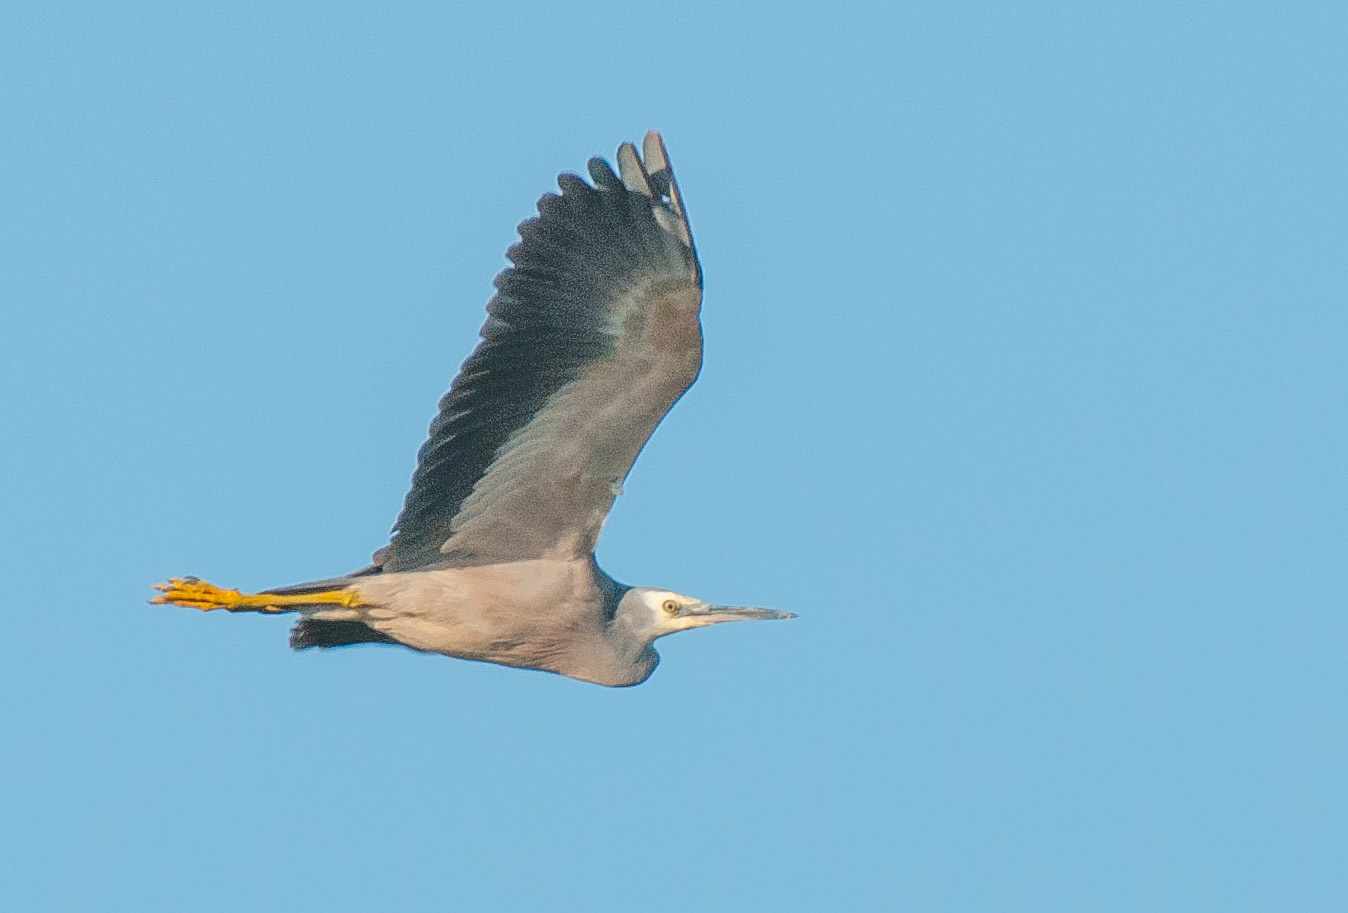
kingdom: Animalia
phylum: Chordata
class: Aves
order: Pelecaniformes
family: Ardeidae
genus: Egretta
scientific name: Egretta novaehollandiae
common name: White-faced heron
